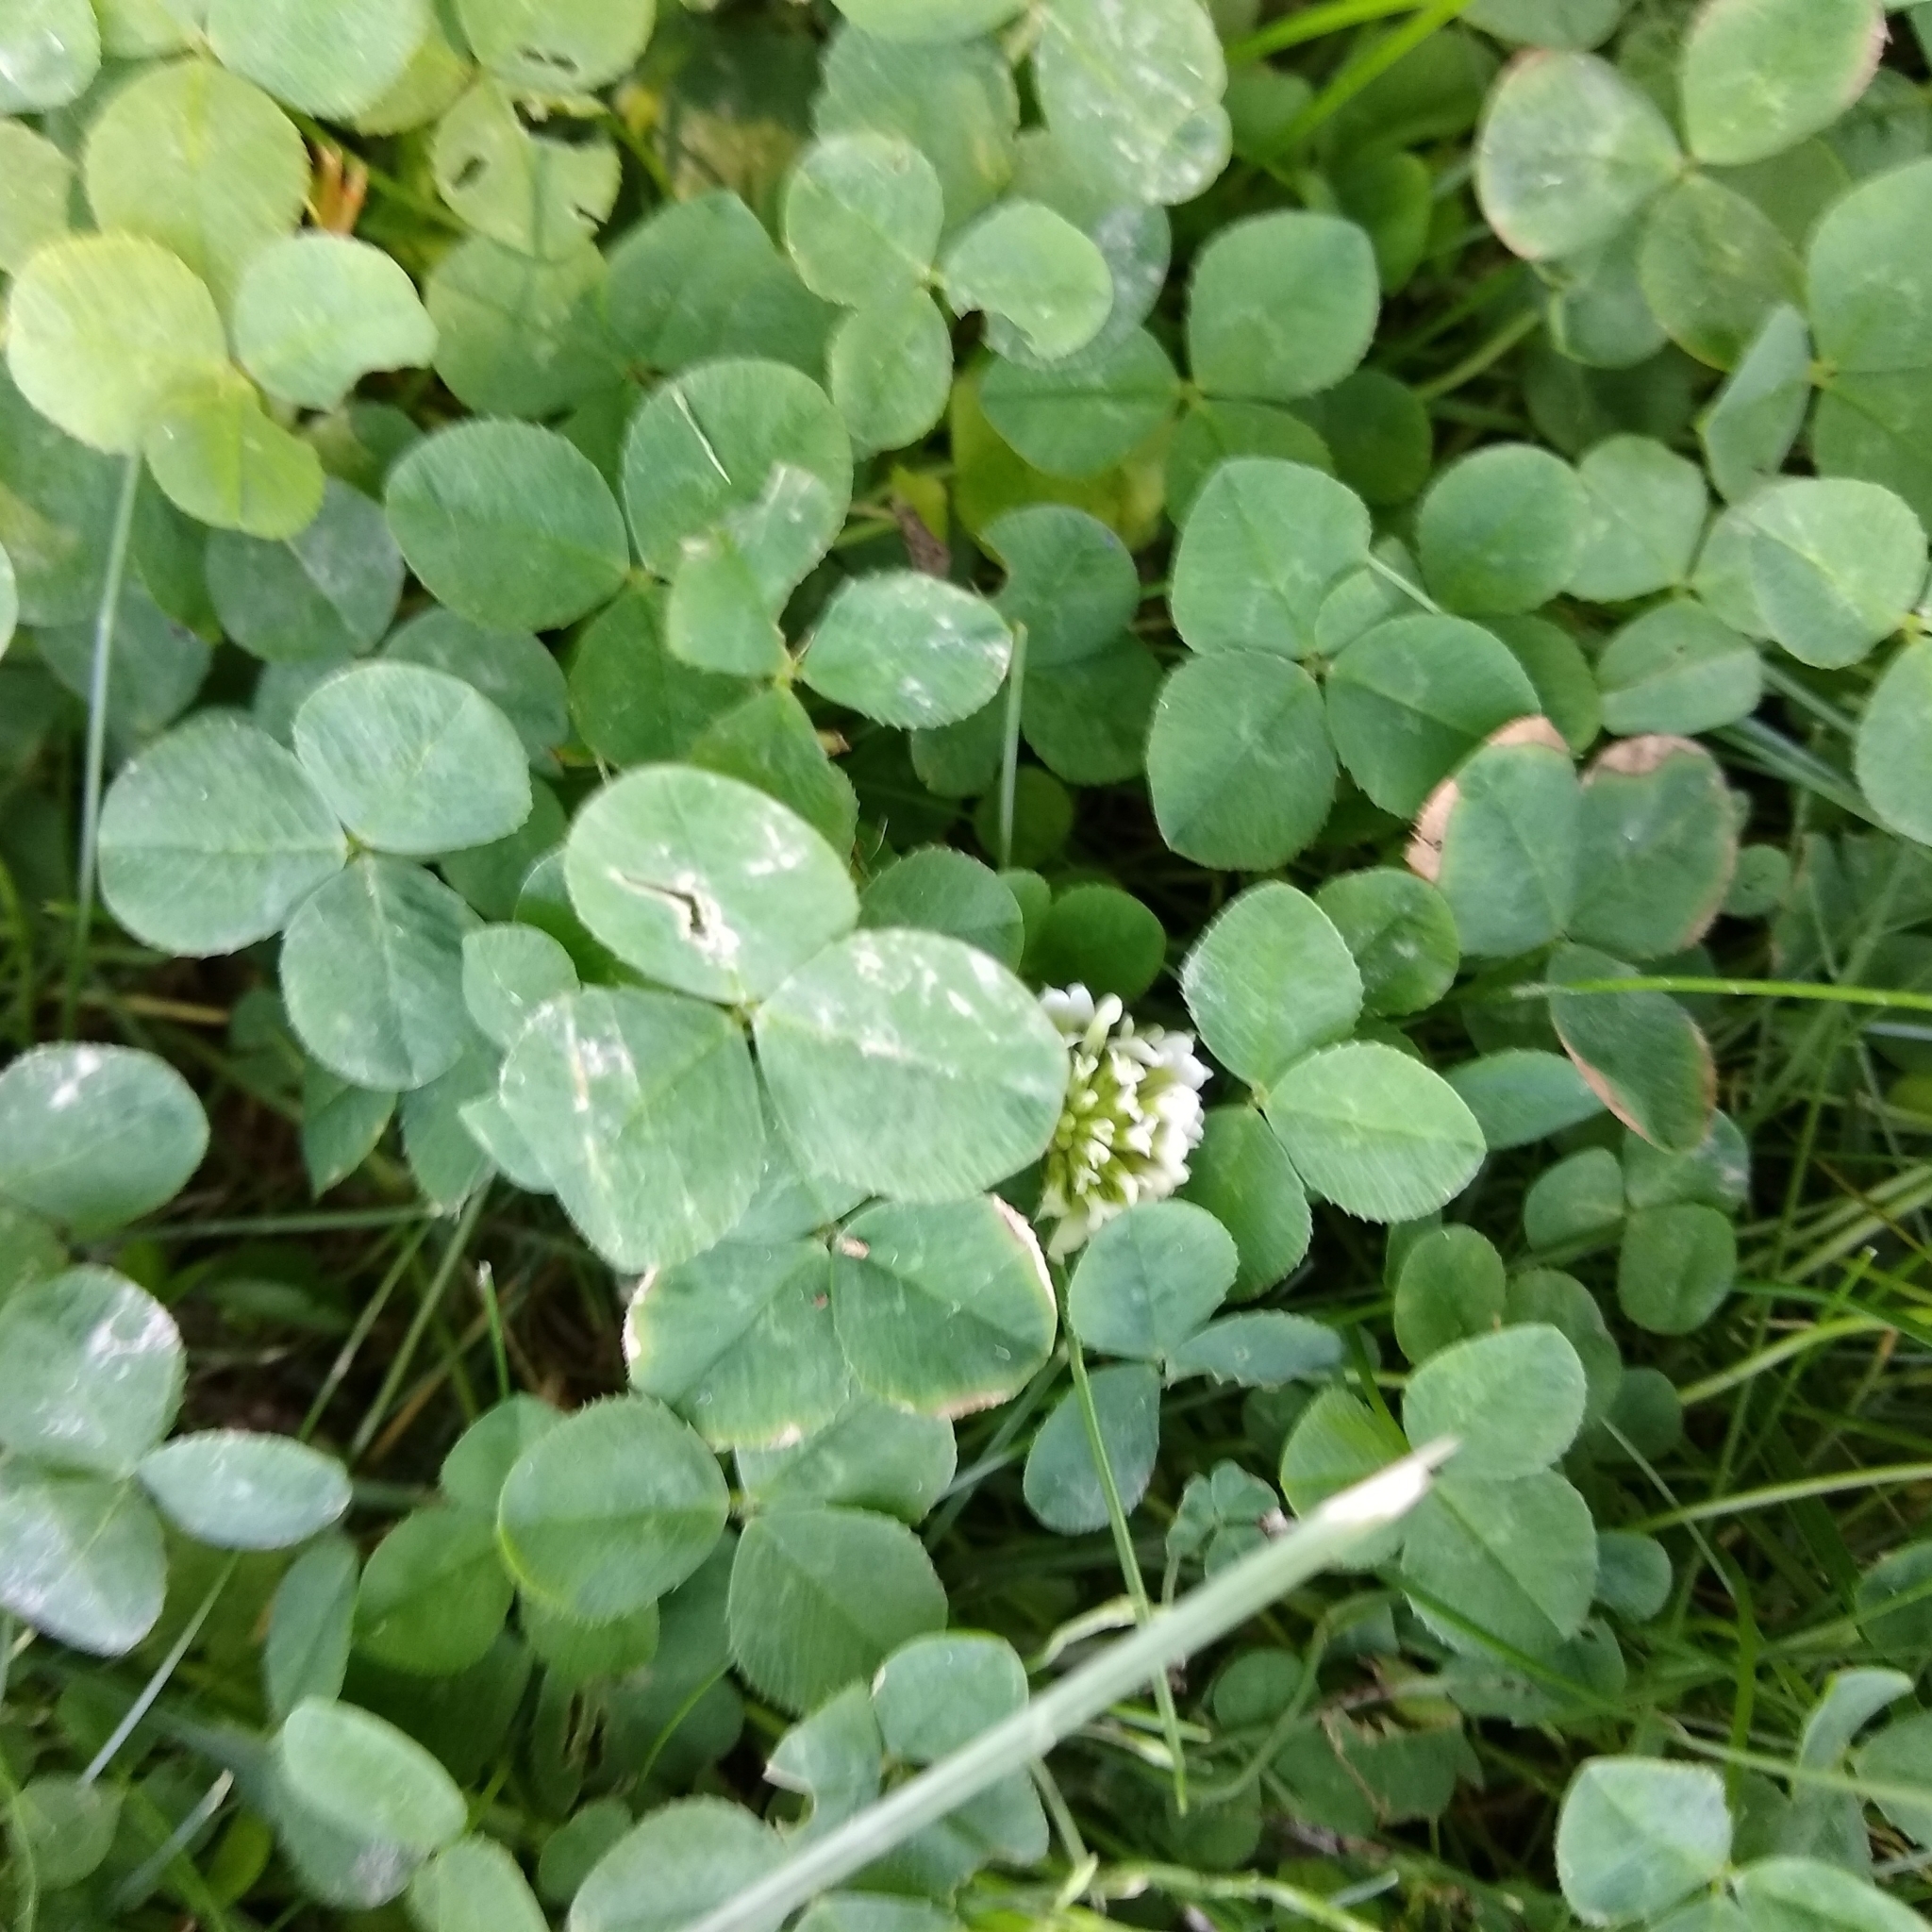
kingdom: Plantae
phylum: Tracheophyta
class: Magnoliopsida
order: Fabales
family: Fabaceae
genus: Trifolium
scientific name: Trifolium repens
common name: White clover
